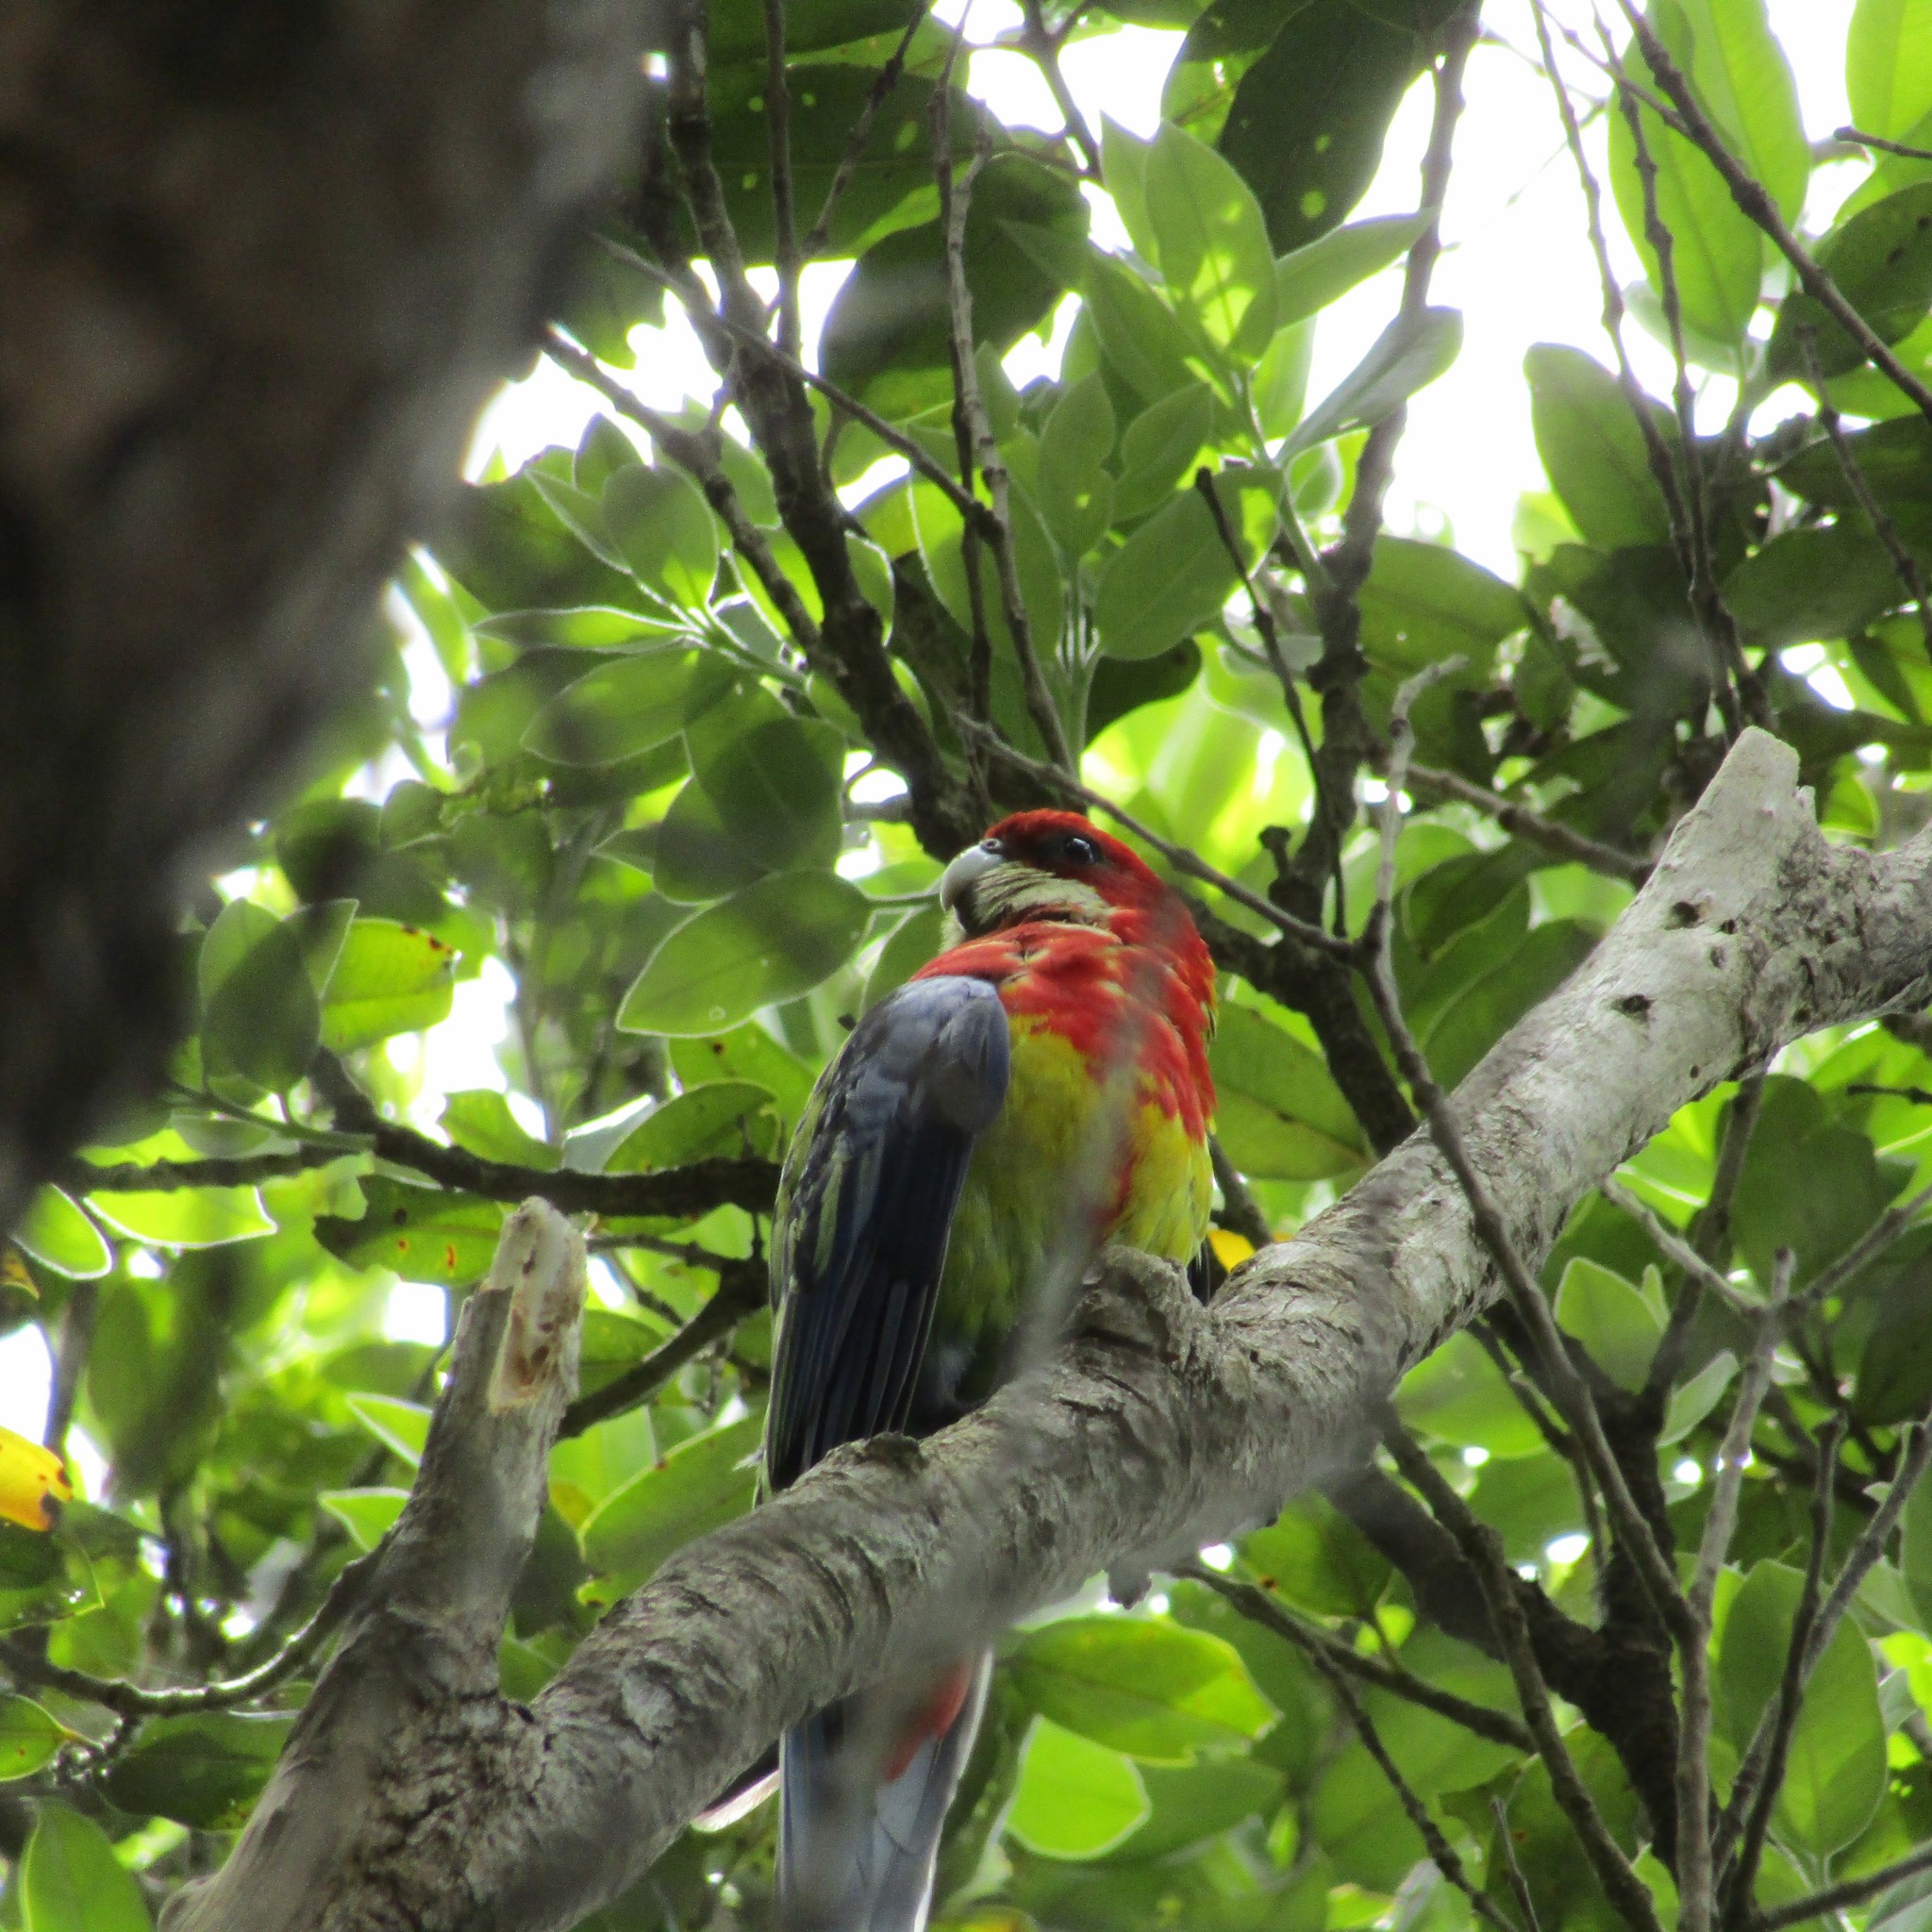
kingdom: Animalia
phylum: Chordata
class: Aves
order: Psittaciformes
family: Psittacidae
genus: Platycercus
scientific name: Platycercus eximius
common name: Eastern rosella
